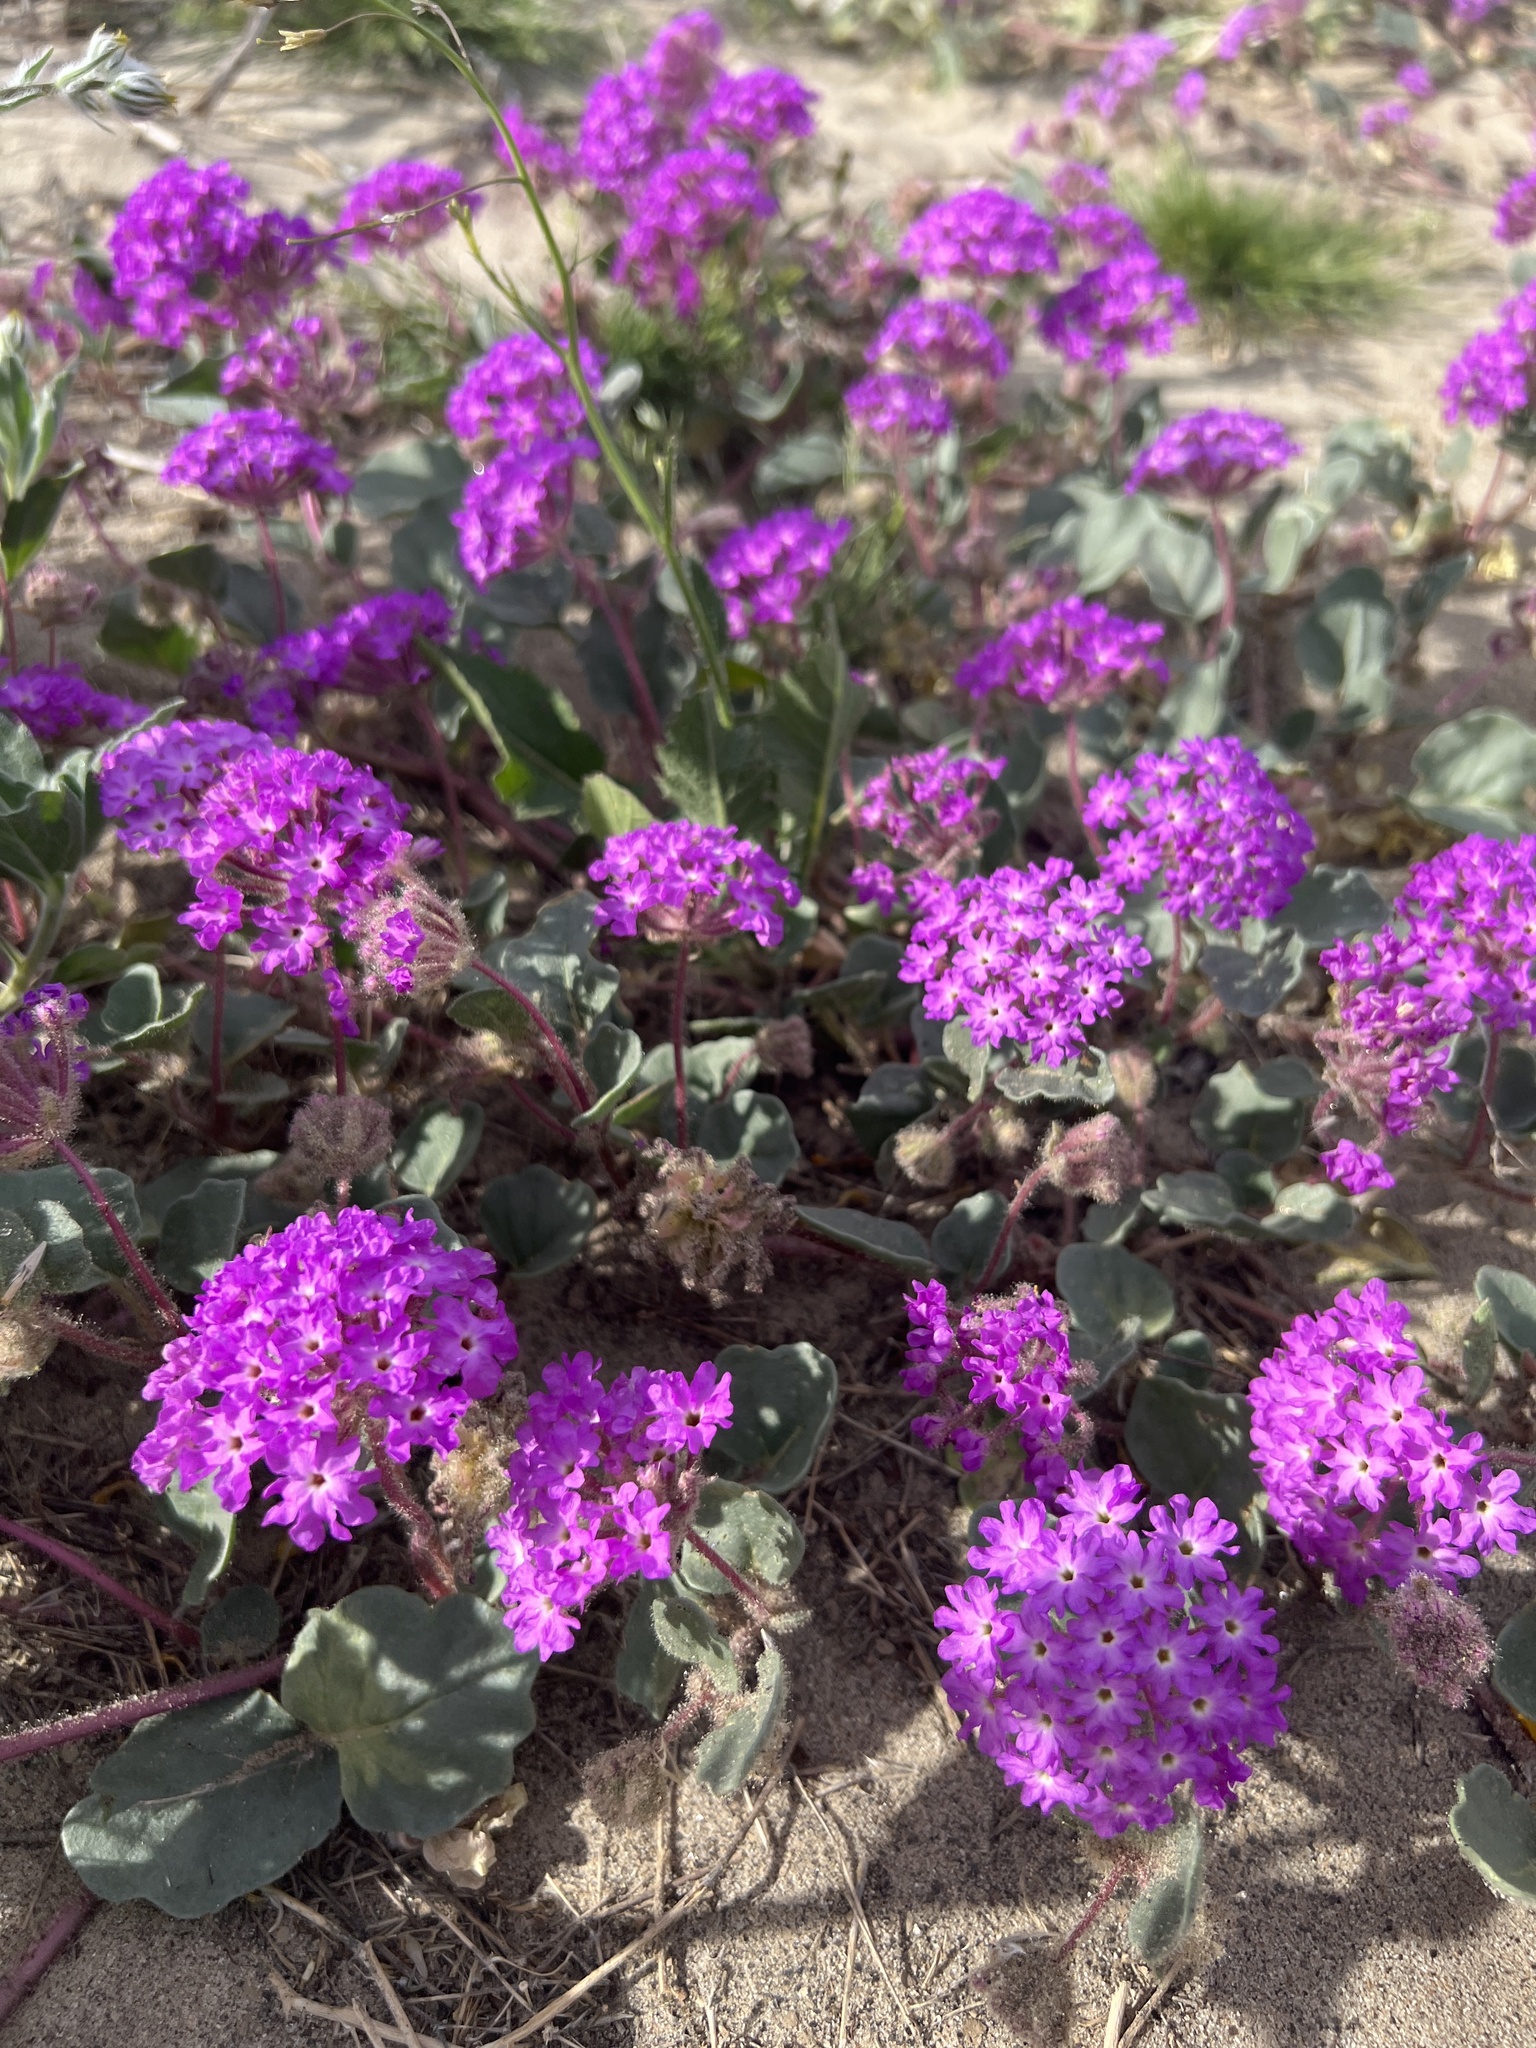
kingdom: Plantae
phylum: Tracheophyta
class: Magnoliopsida
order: Caryophyllales
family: Nyctaginaceae
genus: Abronia
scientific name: Abronia villosa
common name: Desert sand-verbena
